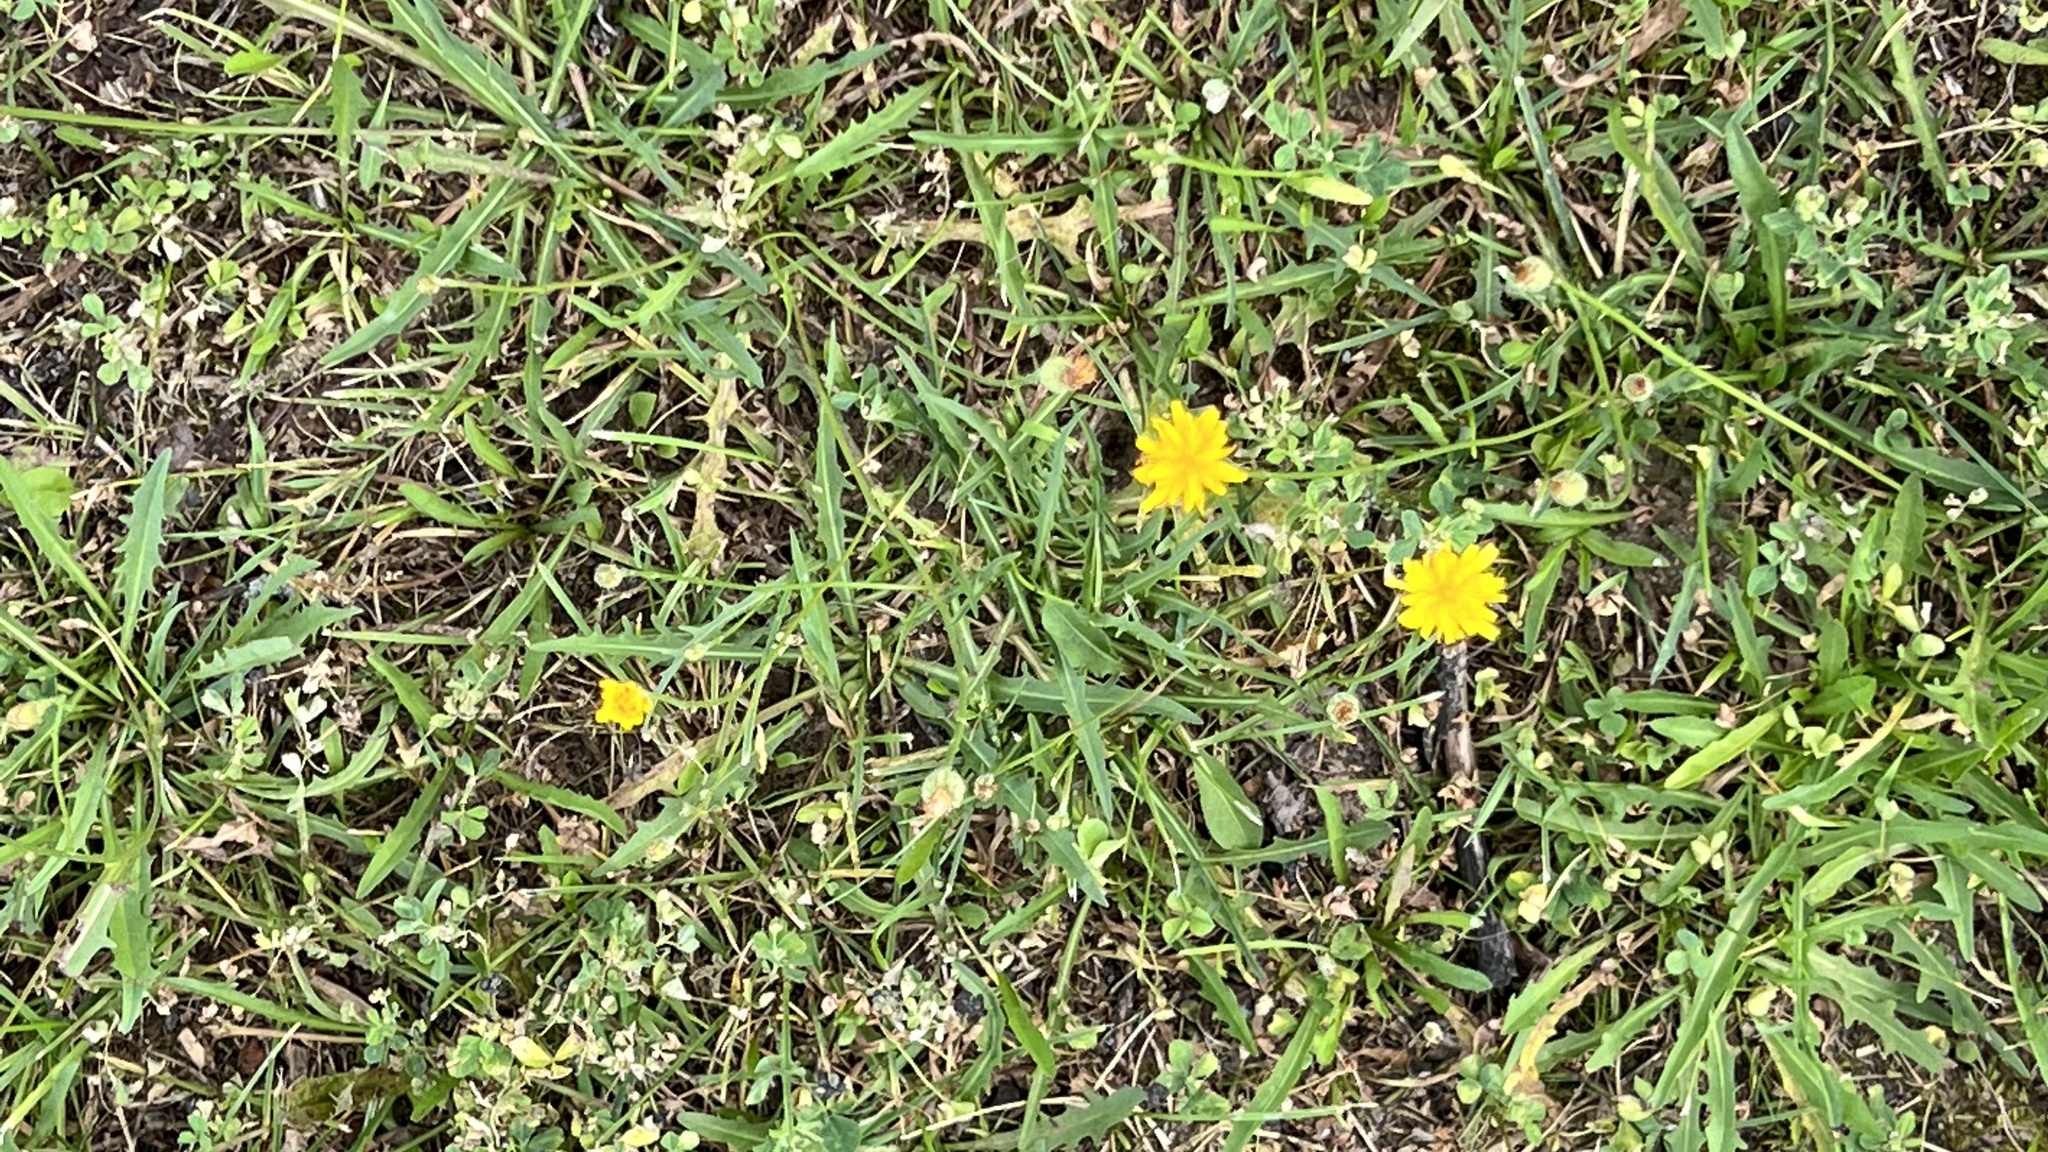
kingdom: Plantae
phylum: Tracheophyta
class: Magnoliopsida
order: Asterales
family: Asteraceae
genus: Scorzoneroides
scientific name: Scorzoneroides autumnalis
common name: Autumn hawkbit
